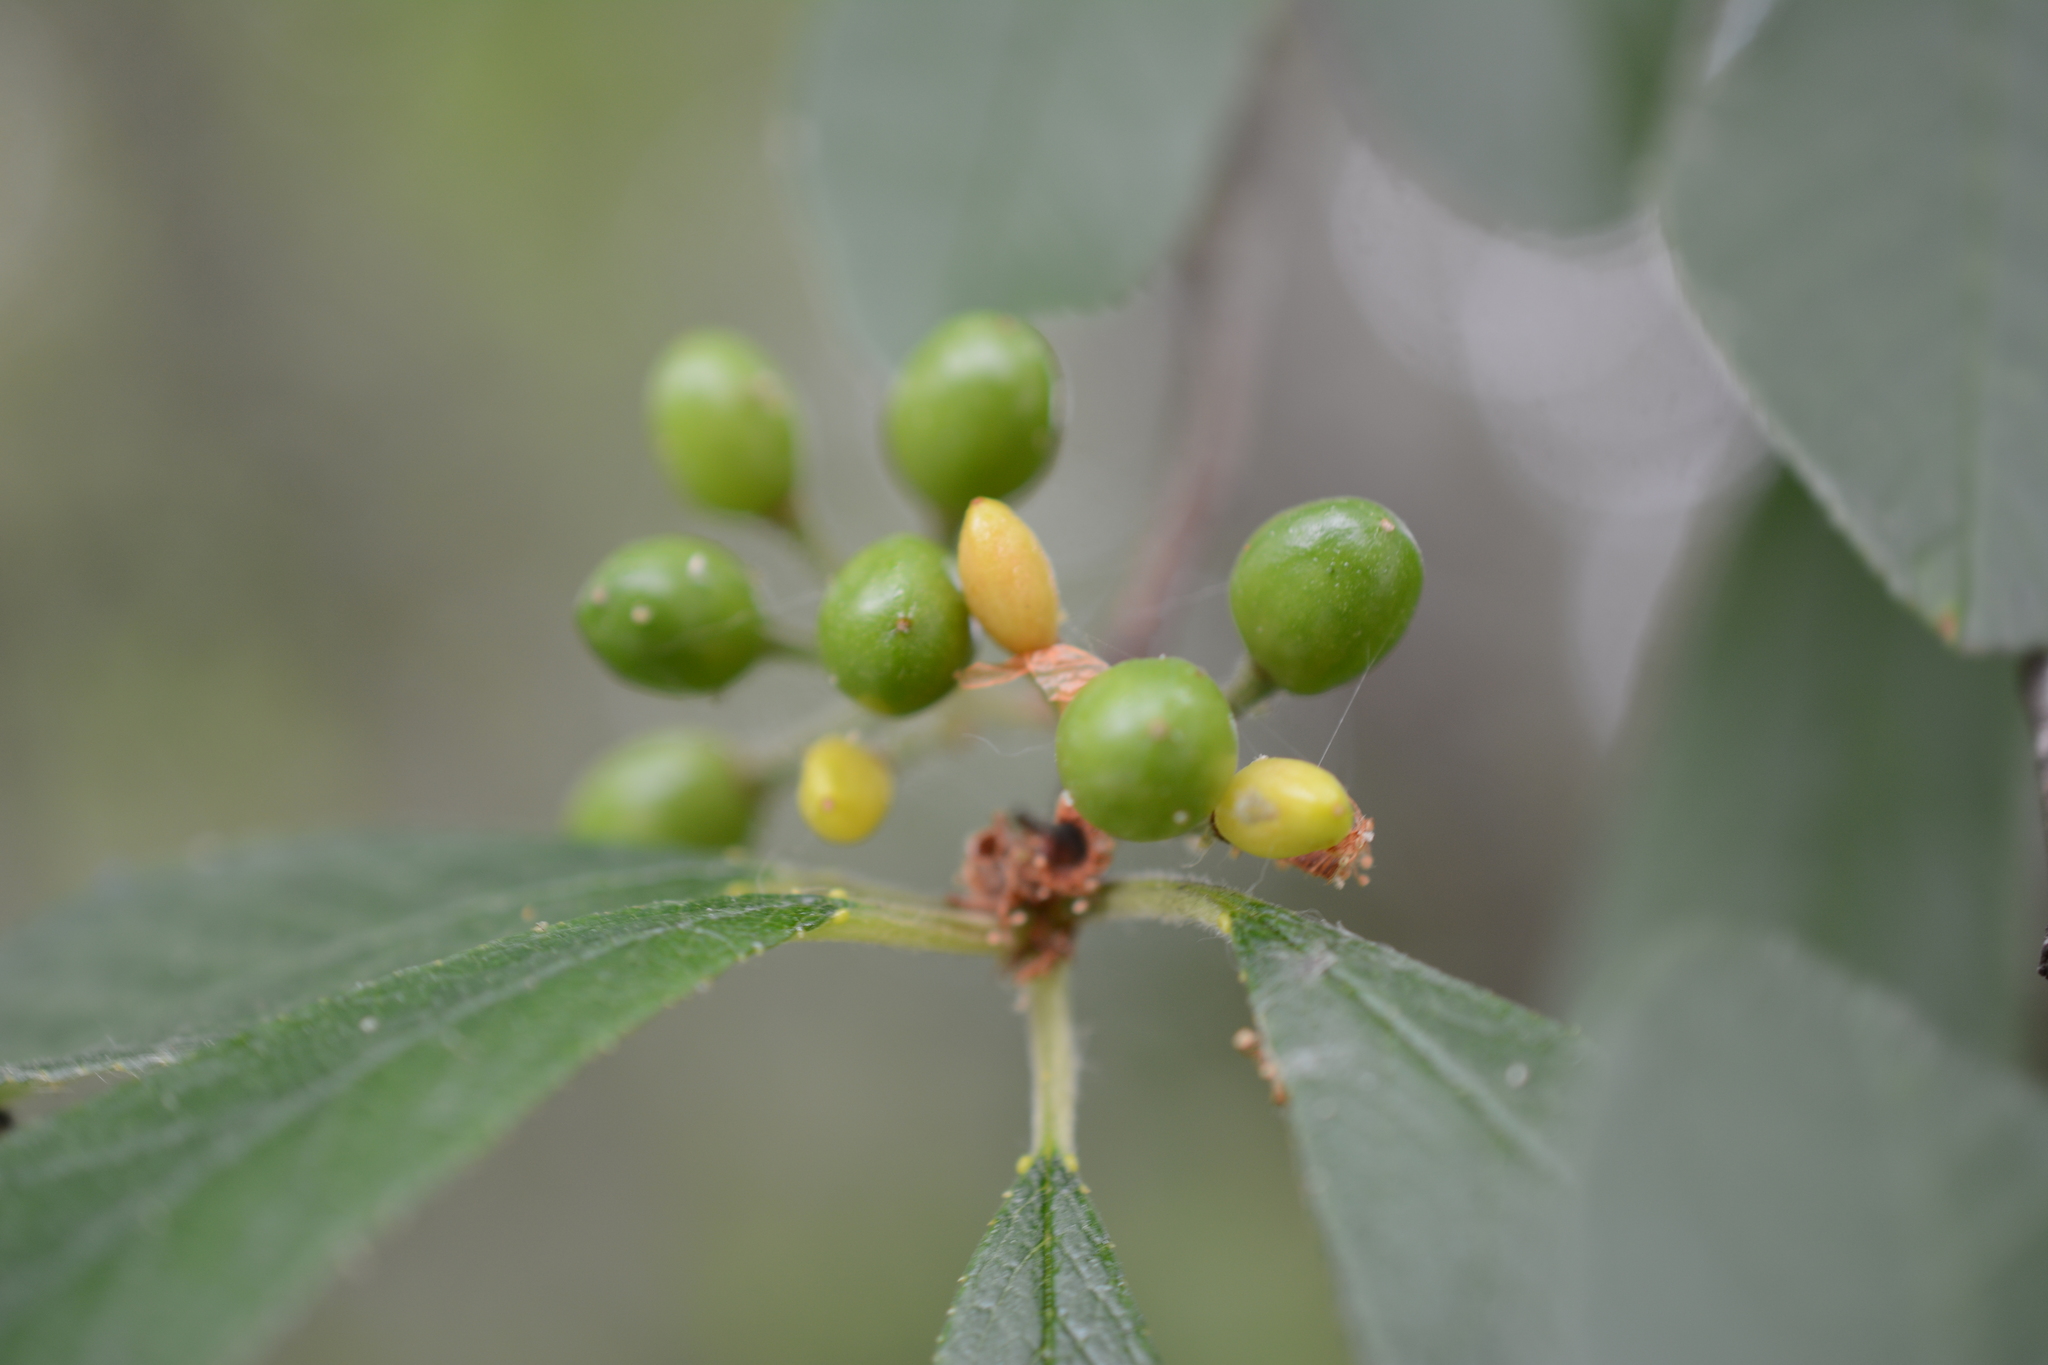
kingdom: Plantae
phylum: Tracheophyta
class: Magnoliopsida
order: Rosales
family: Rhamnaceae
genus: Frangula
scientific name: Frangula purshiana
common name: Cascara buckthorn
